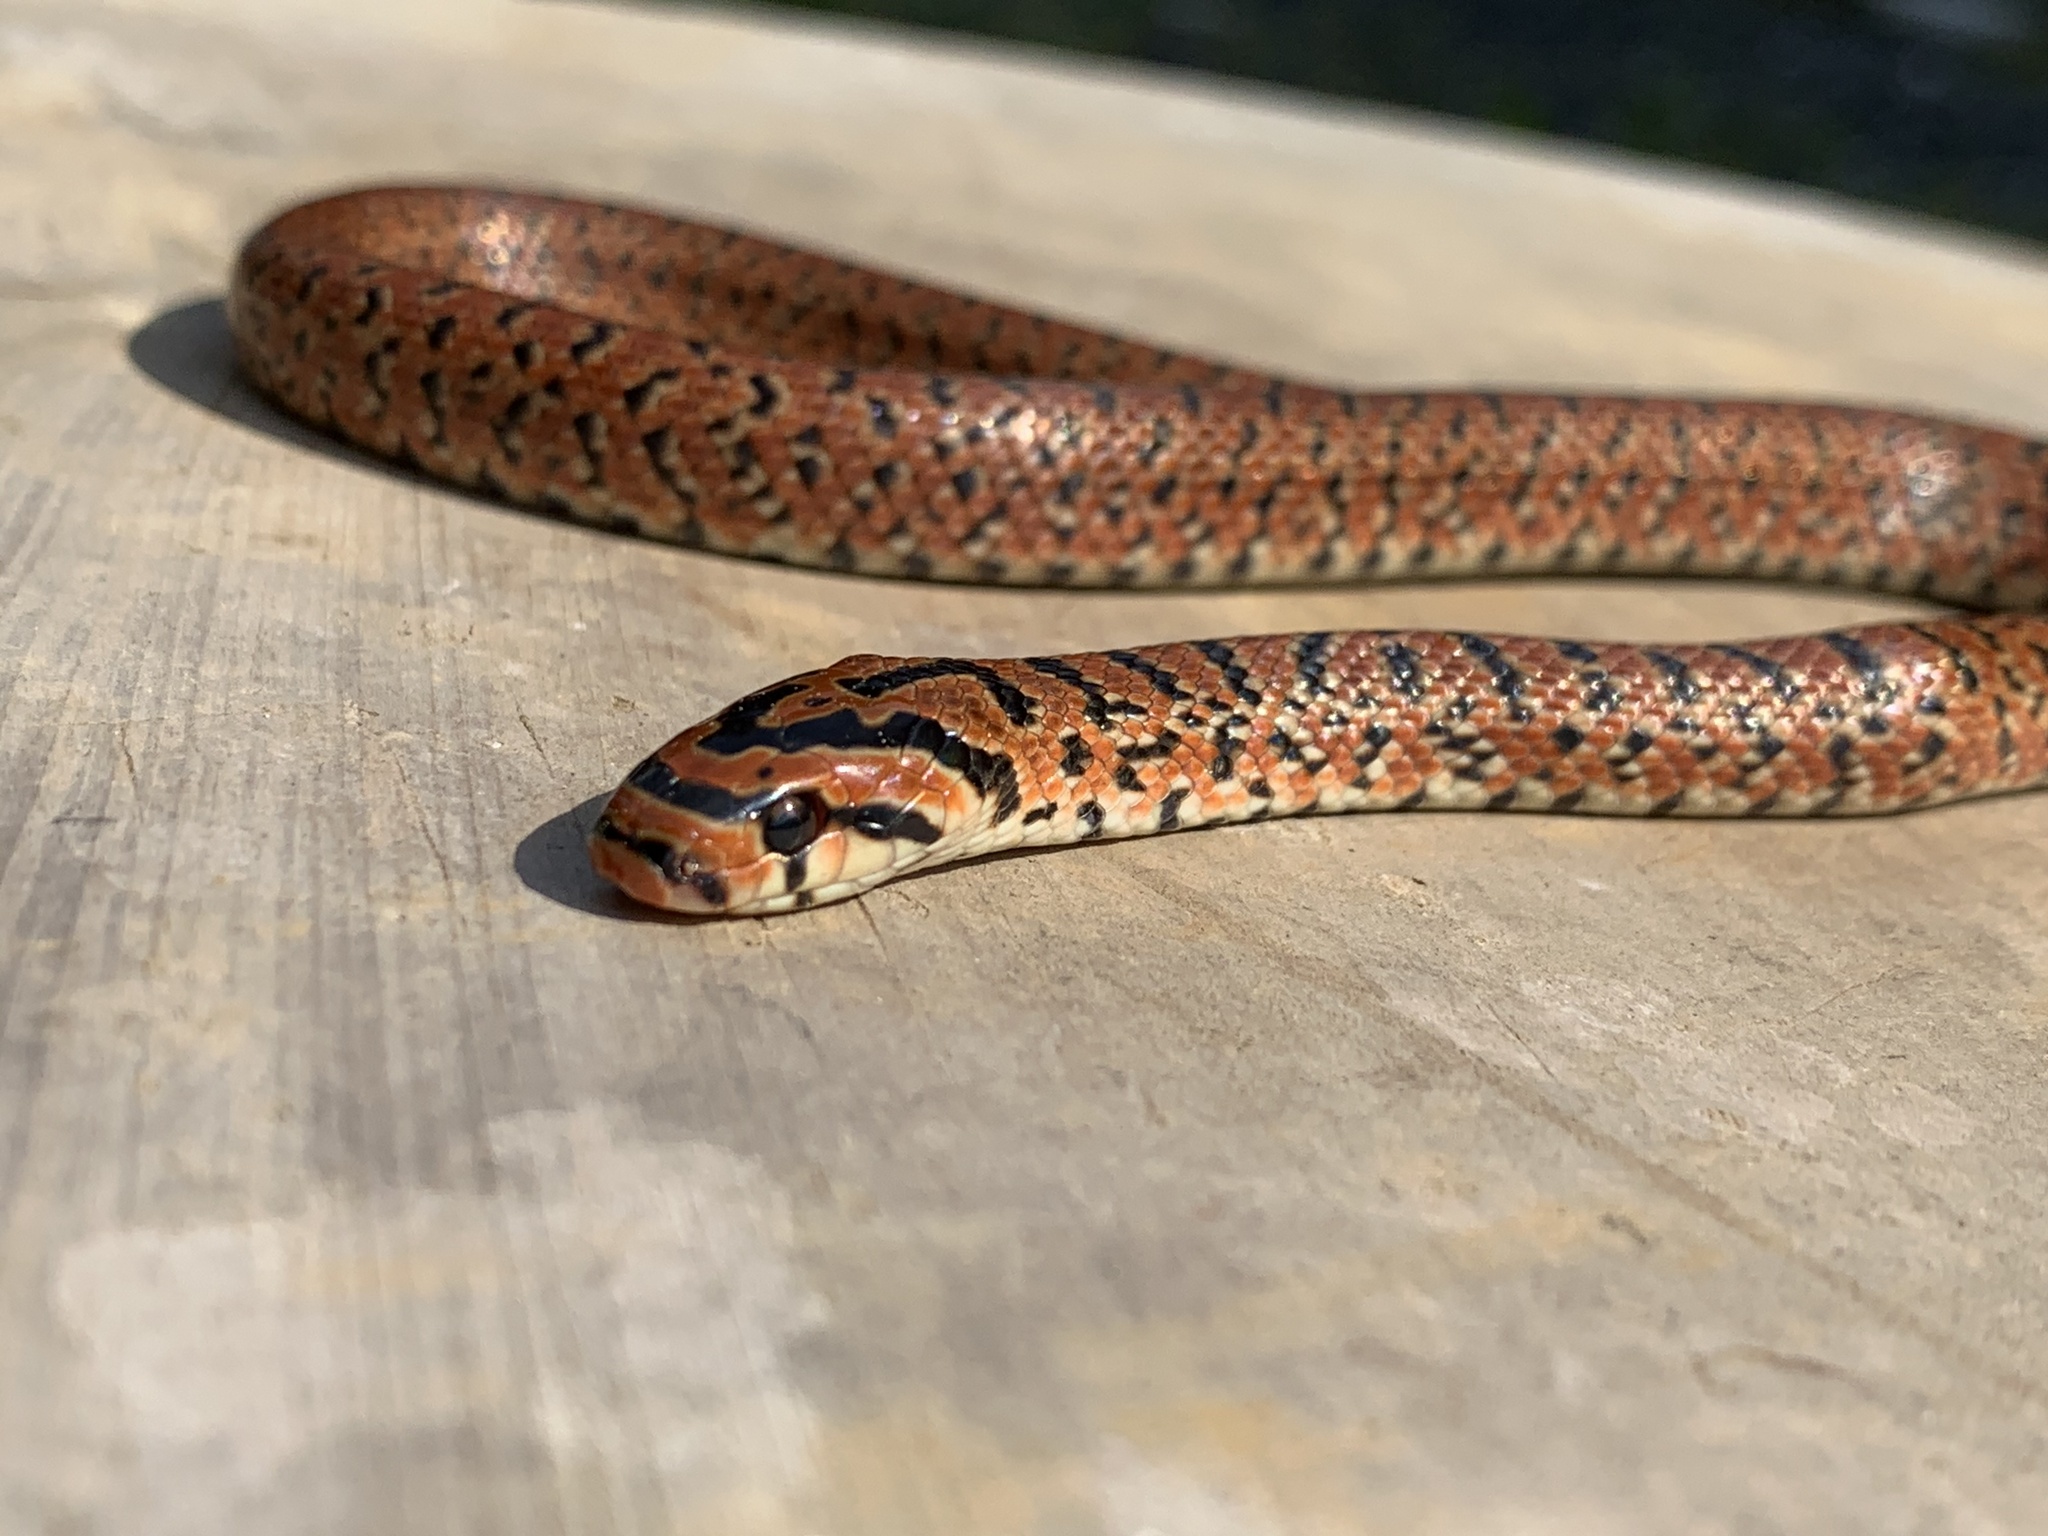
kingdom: Animalia
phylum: Chordata
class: Squamata
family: Colubridae
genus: Euprepiophis
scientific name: Euprepiophis conspicillata
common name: Burrowing ratsnake
